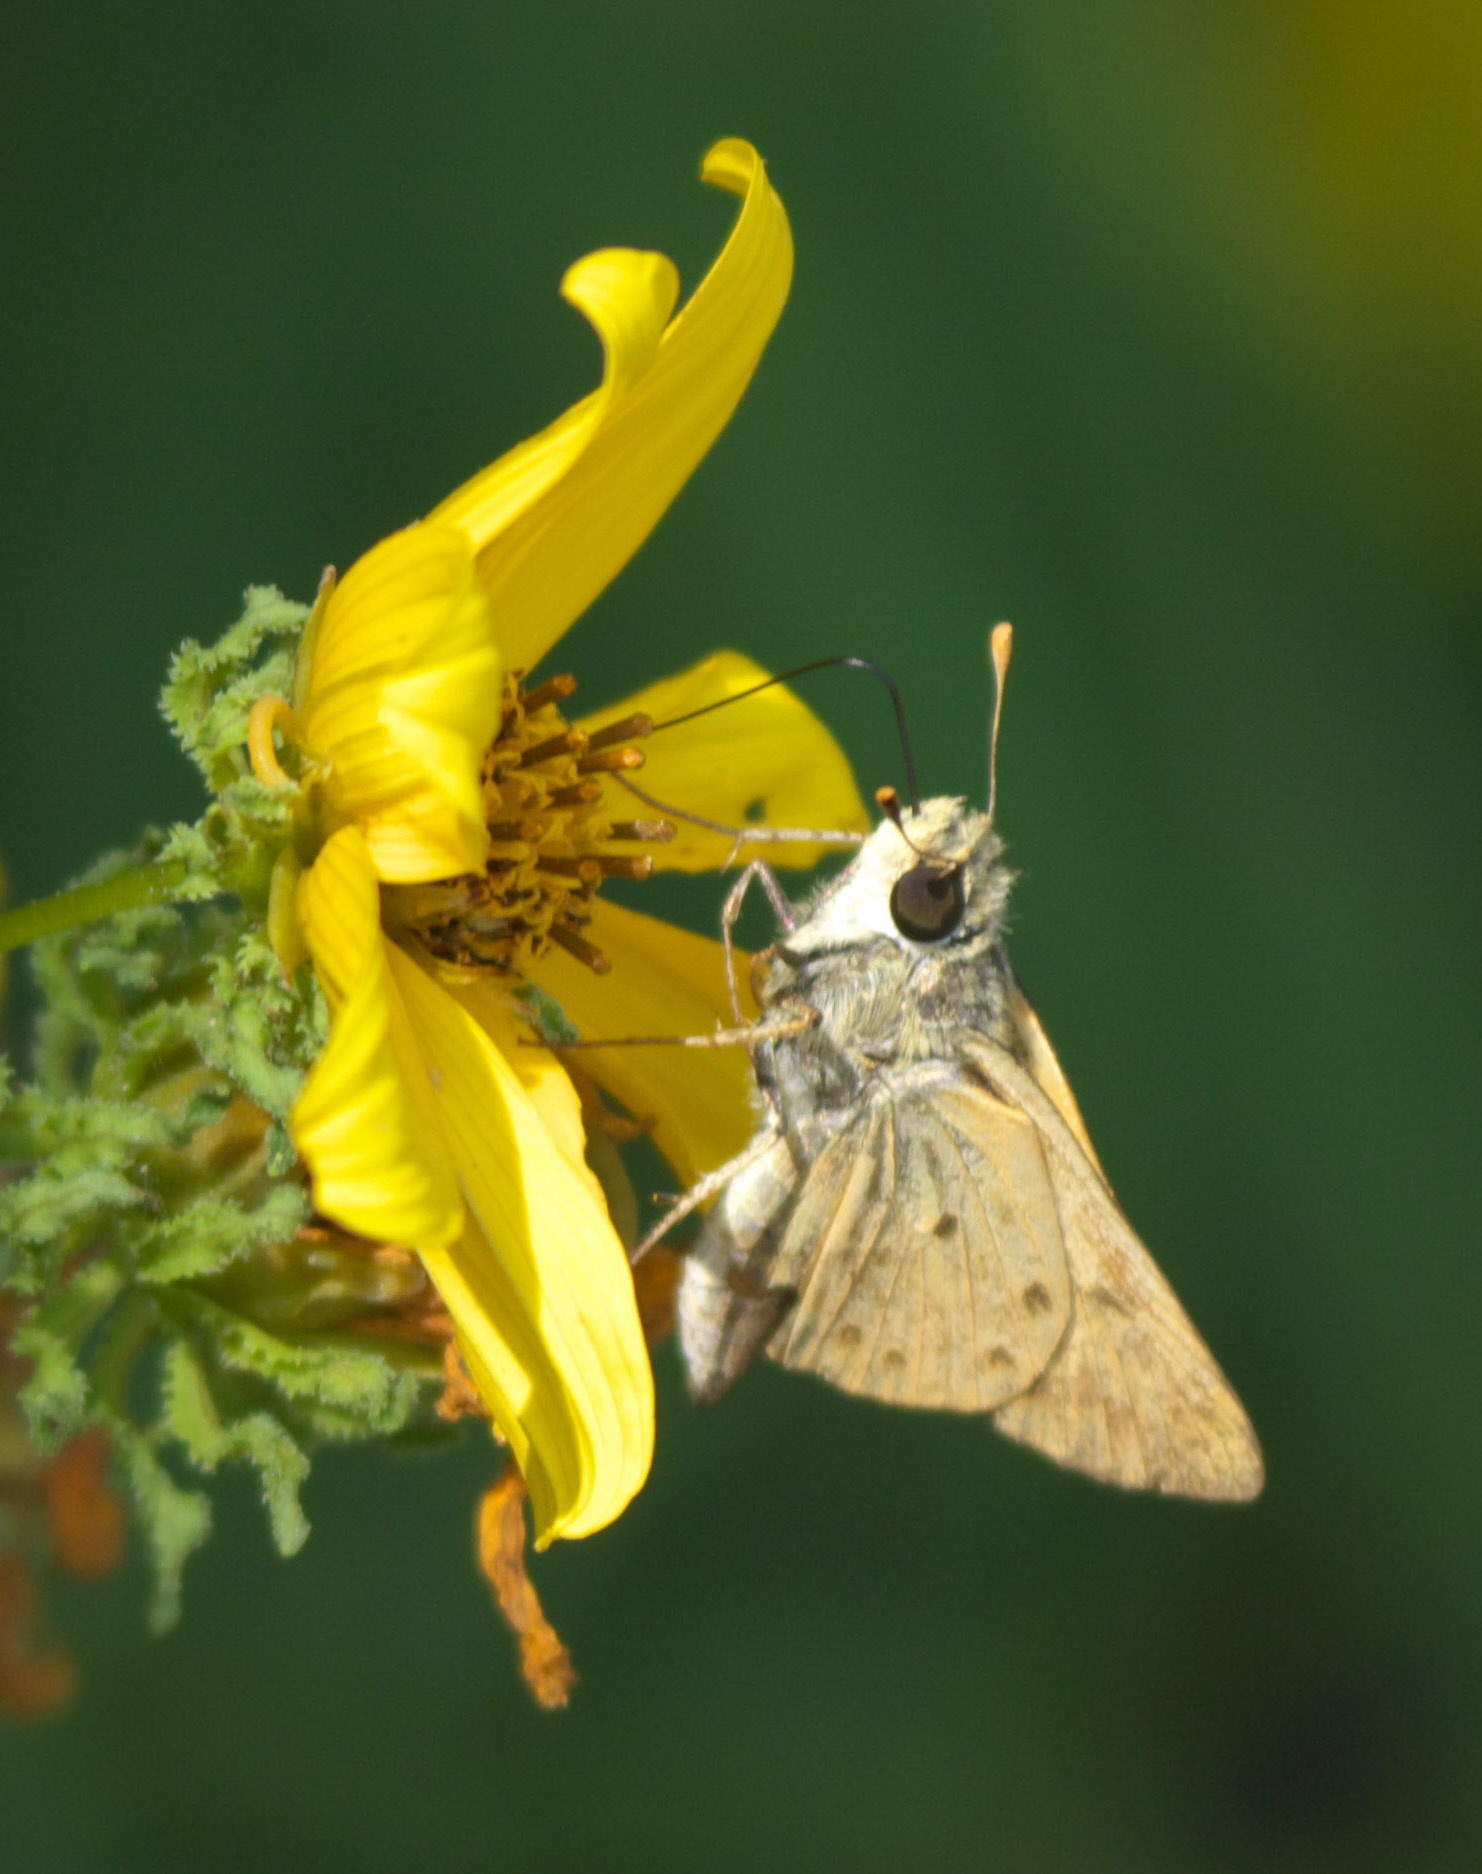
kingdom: Animalia
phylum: Arthropoda
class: Insecta
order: Lepidoptera
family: Hesperiidae
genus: Hylephila
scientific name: Hylephila phyleus
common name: Fiery skipper
